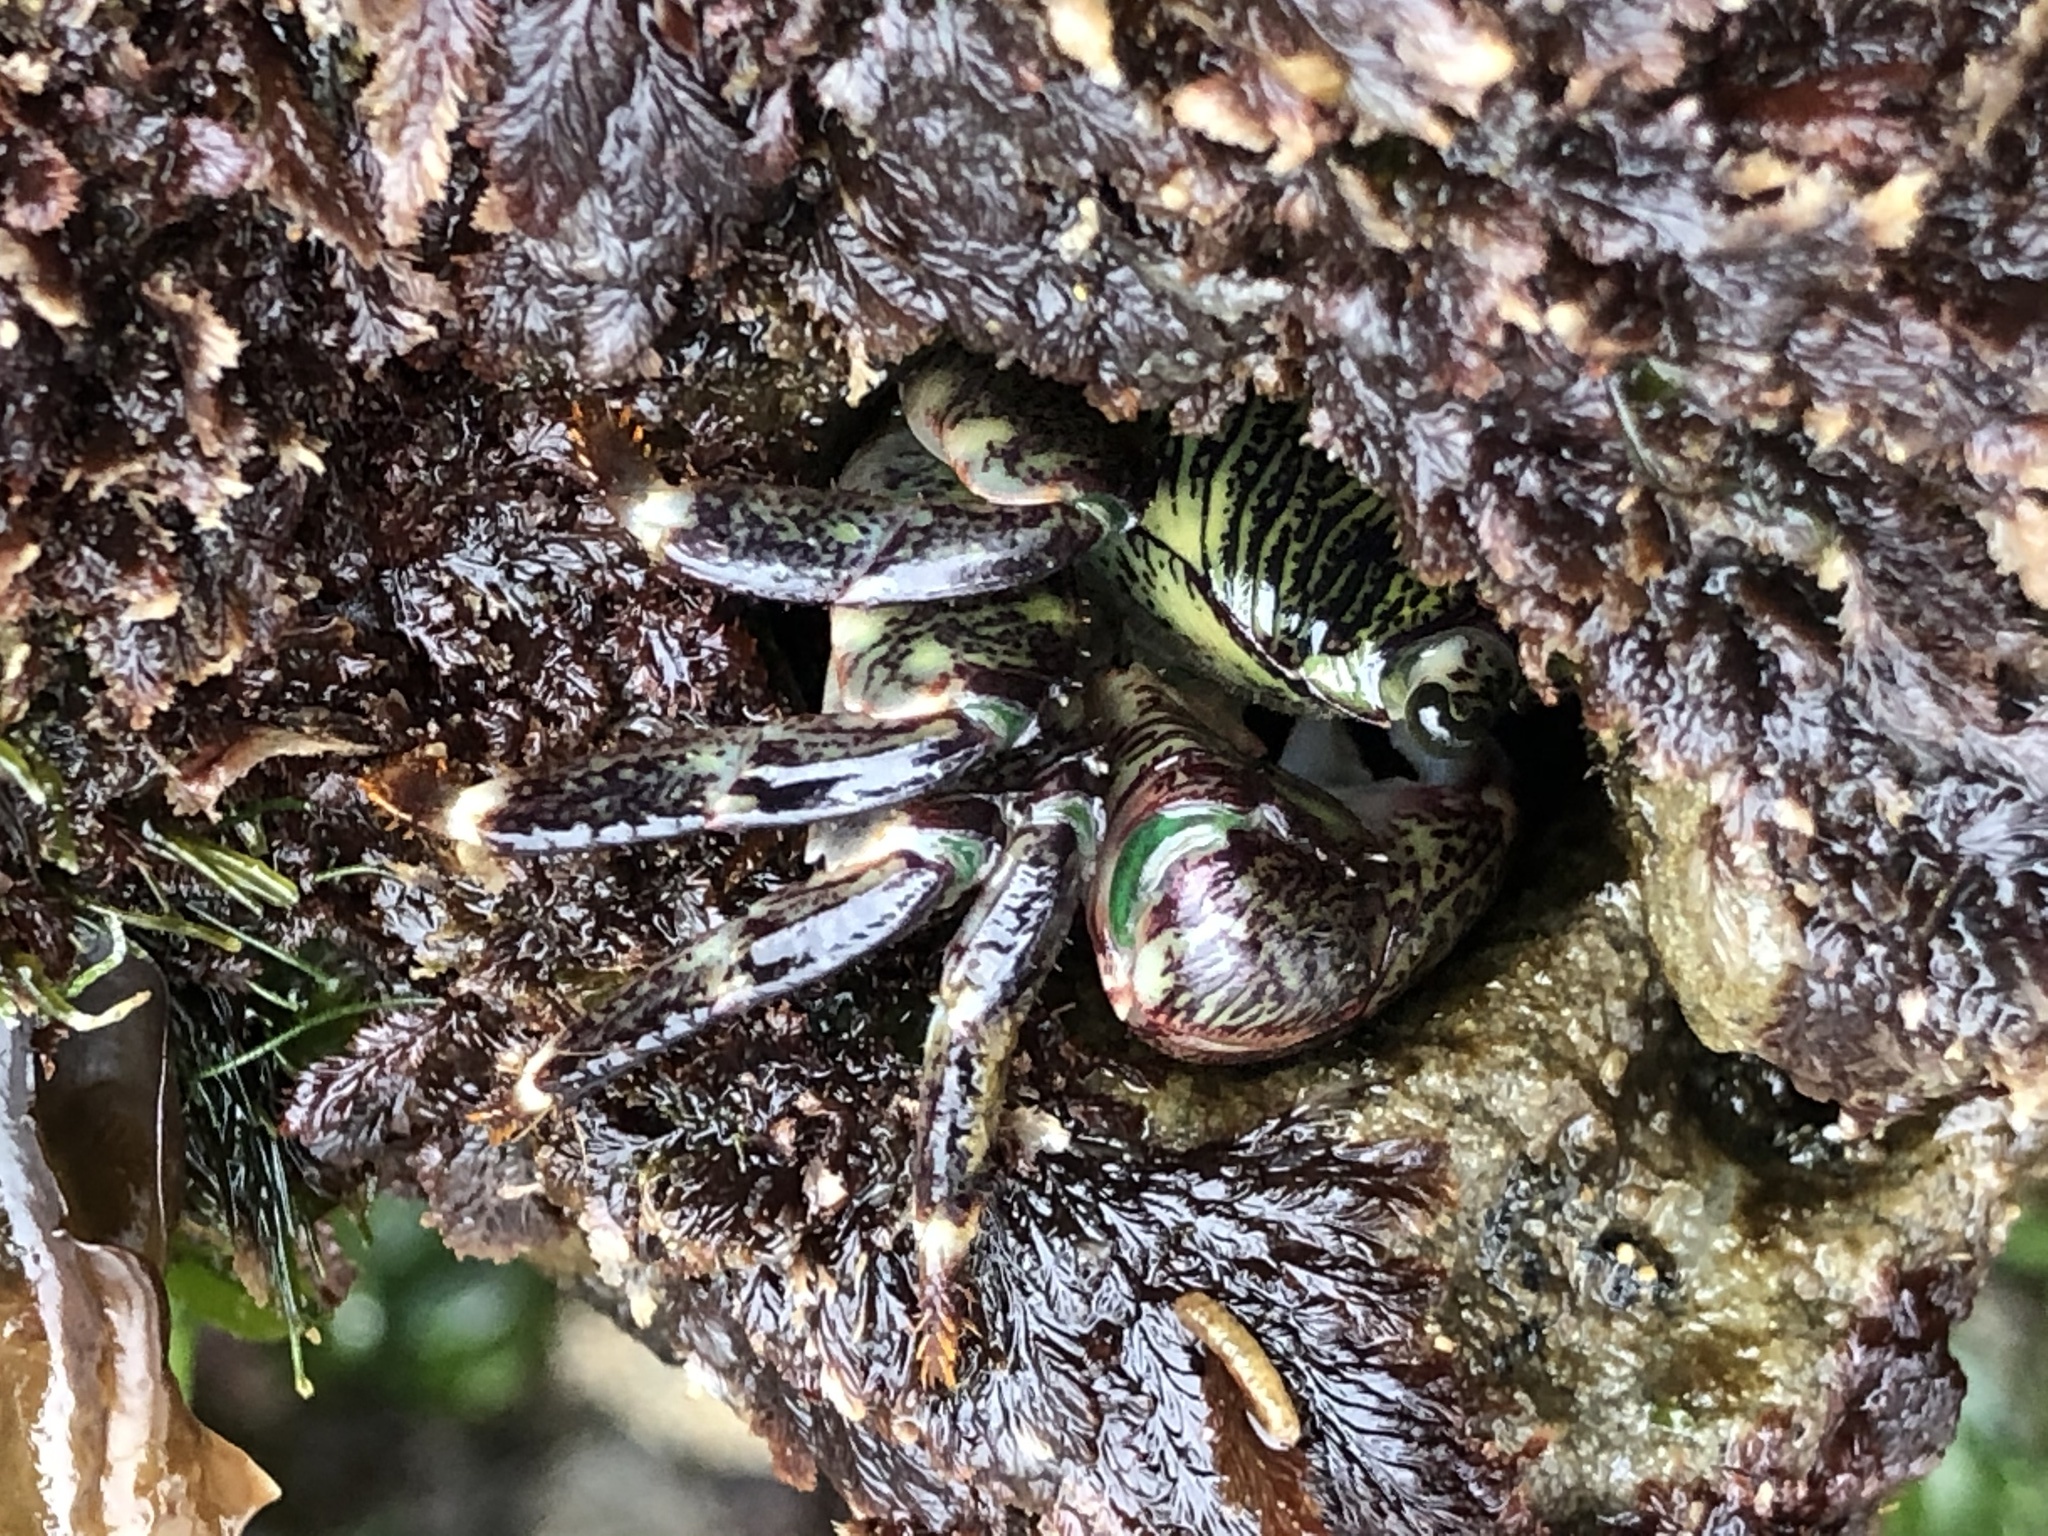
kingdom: Animalia
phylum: Arthropoda
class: Malacostraca
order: Decapoda
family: Grapsidae
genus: Pachygrapsus
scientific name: Pachygrapsus crassipes
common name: Striped shore crab
